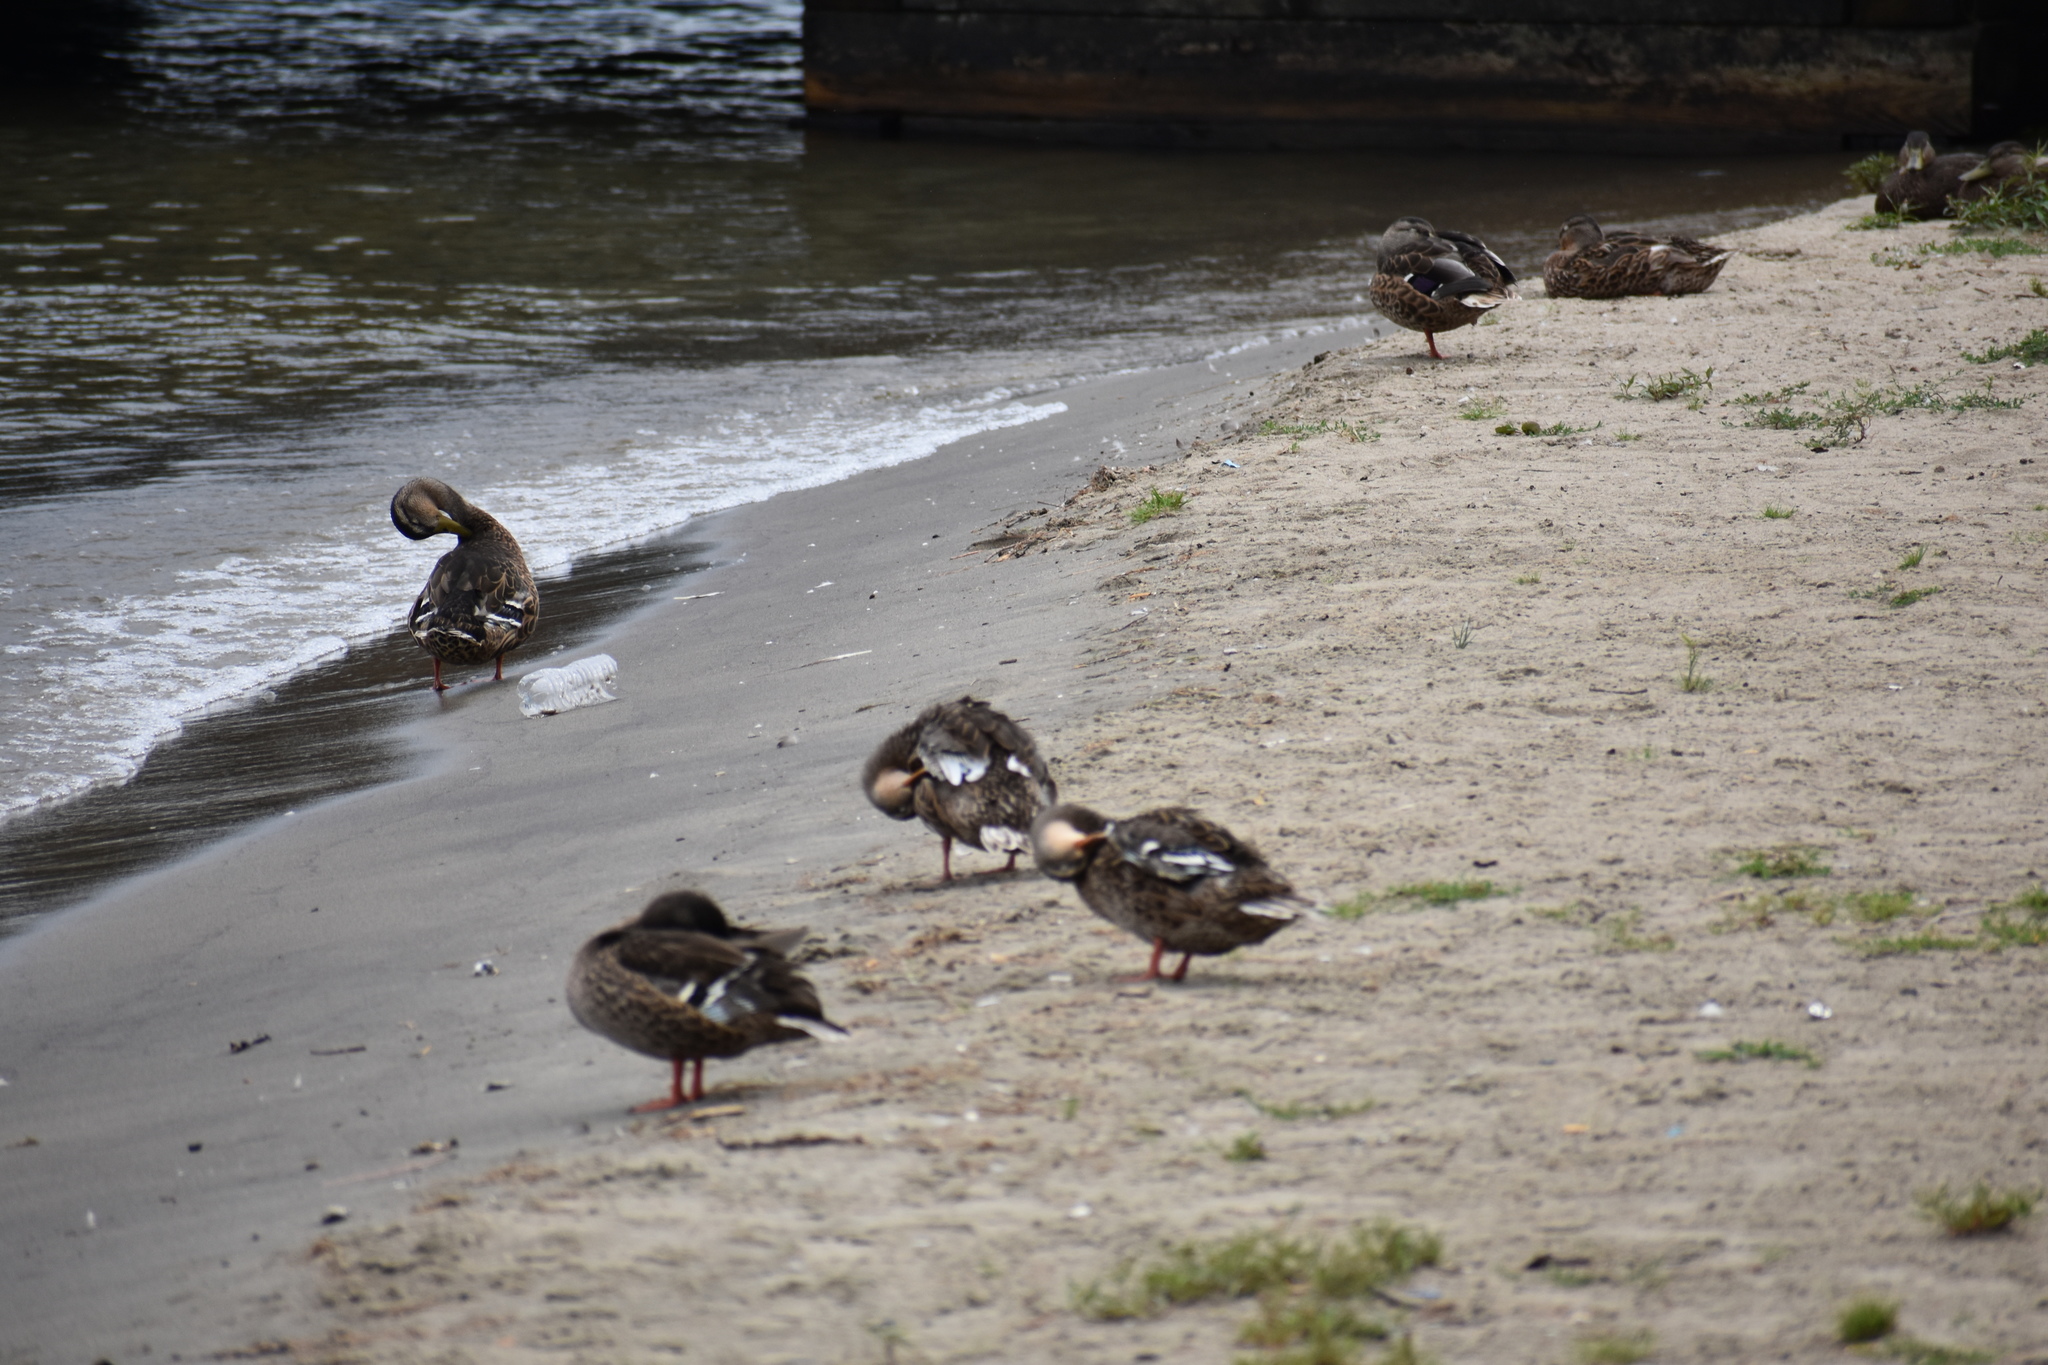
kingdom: Animalia
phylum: Chordata
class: Aves
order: Anseriformes
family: Anatidae
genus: Anas
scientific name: Anas platyrhynchos
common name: Mallard
